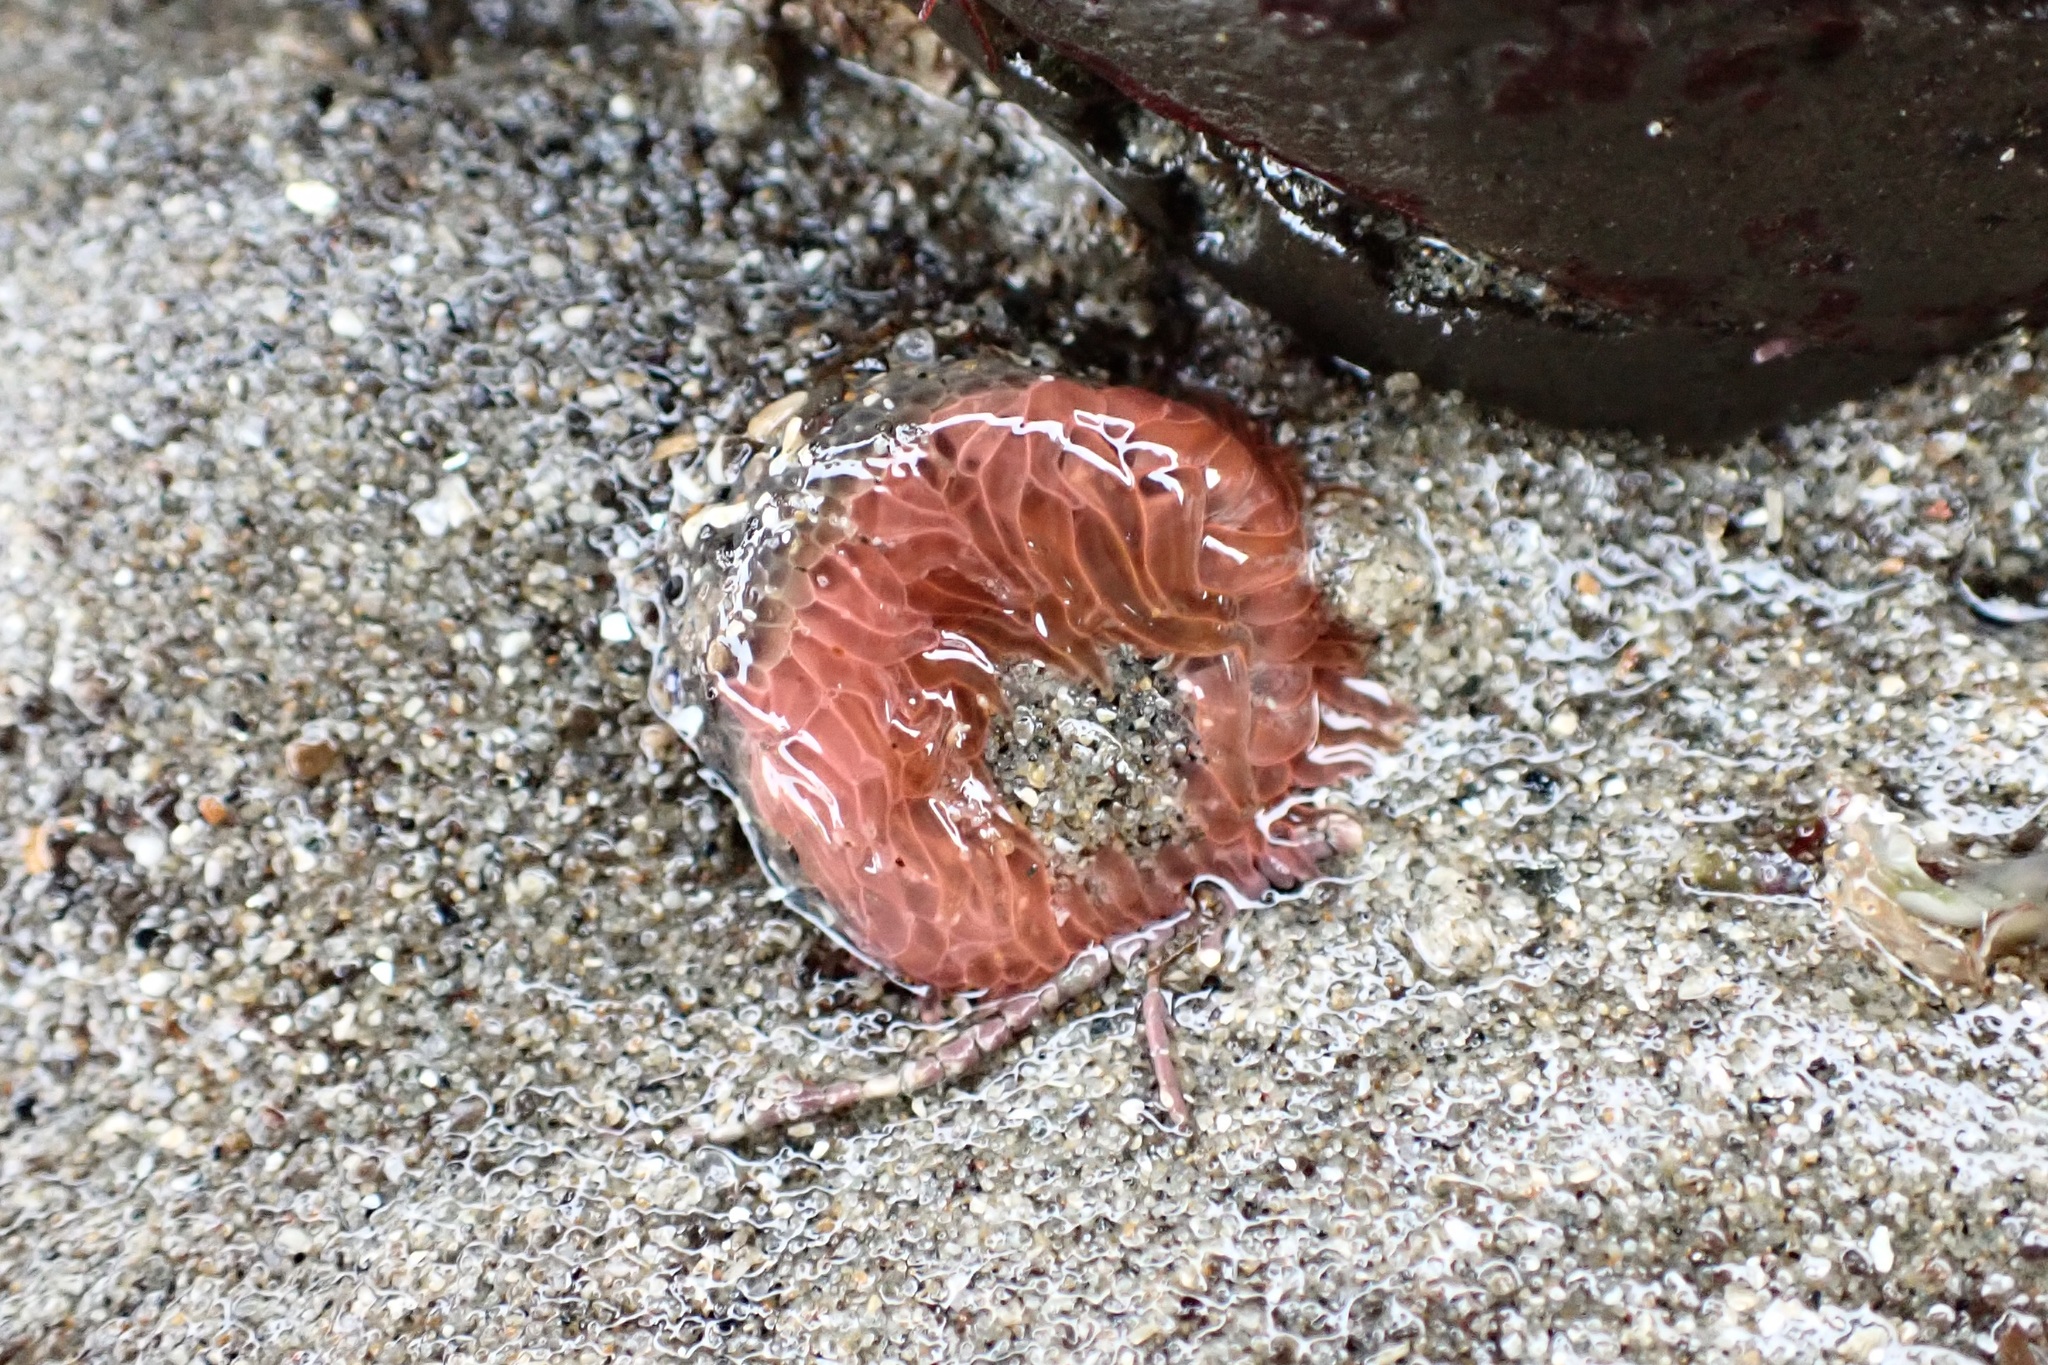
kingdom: Animalia
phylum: Cnidaria
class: Anthozoa
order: Actiniaria
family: Actiniidae
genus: Anthopleura
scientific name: Anthopleura artemisia
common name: Buried sea anemone
